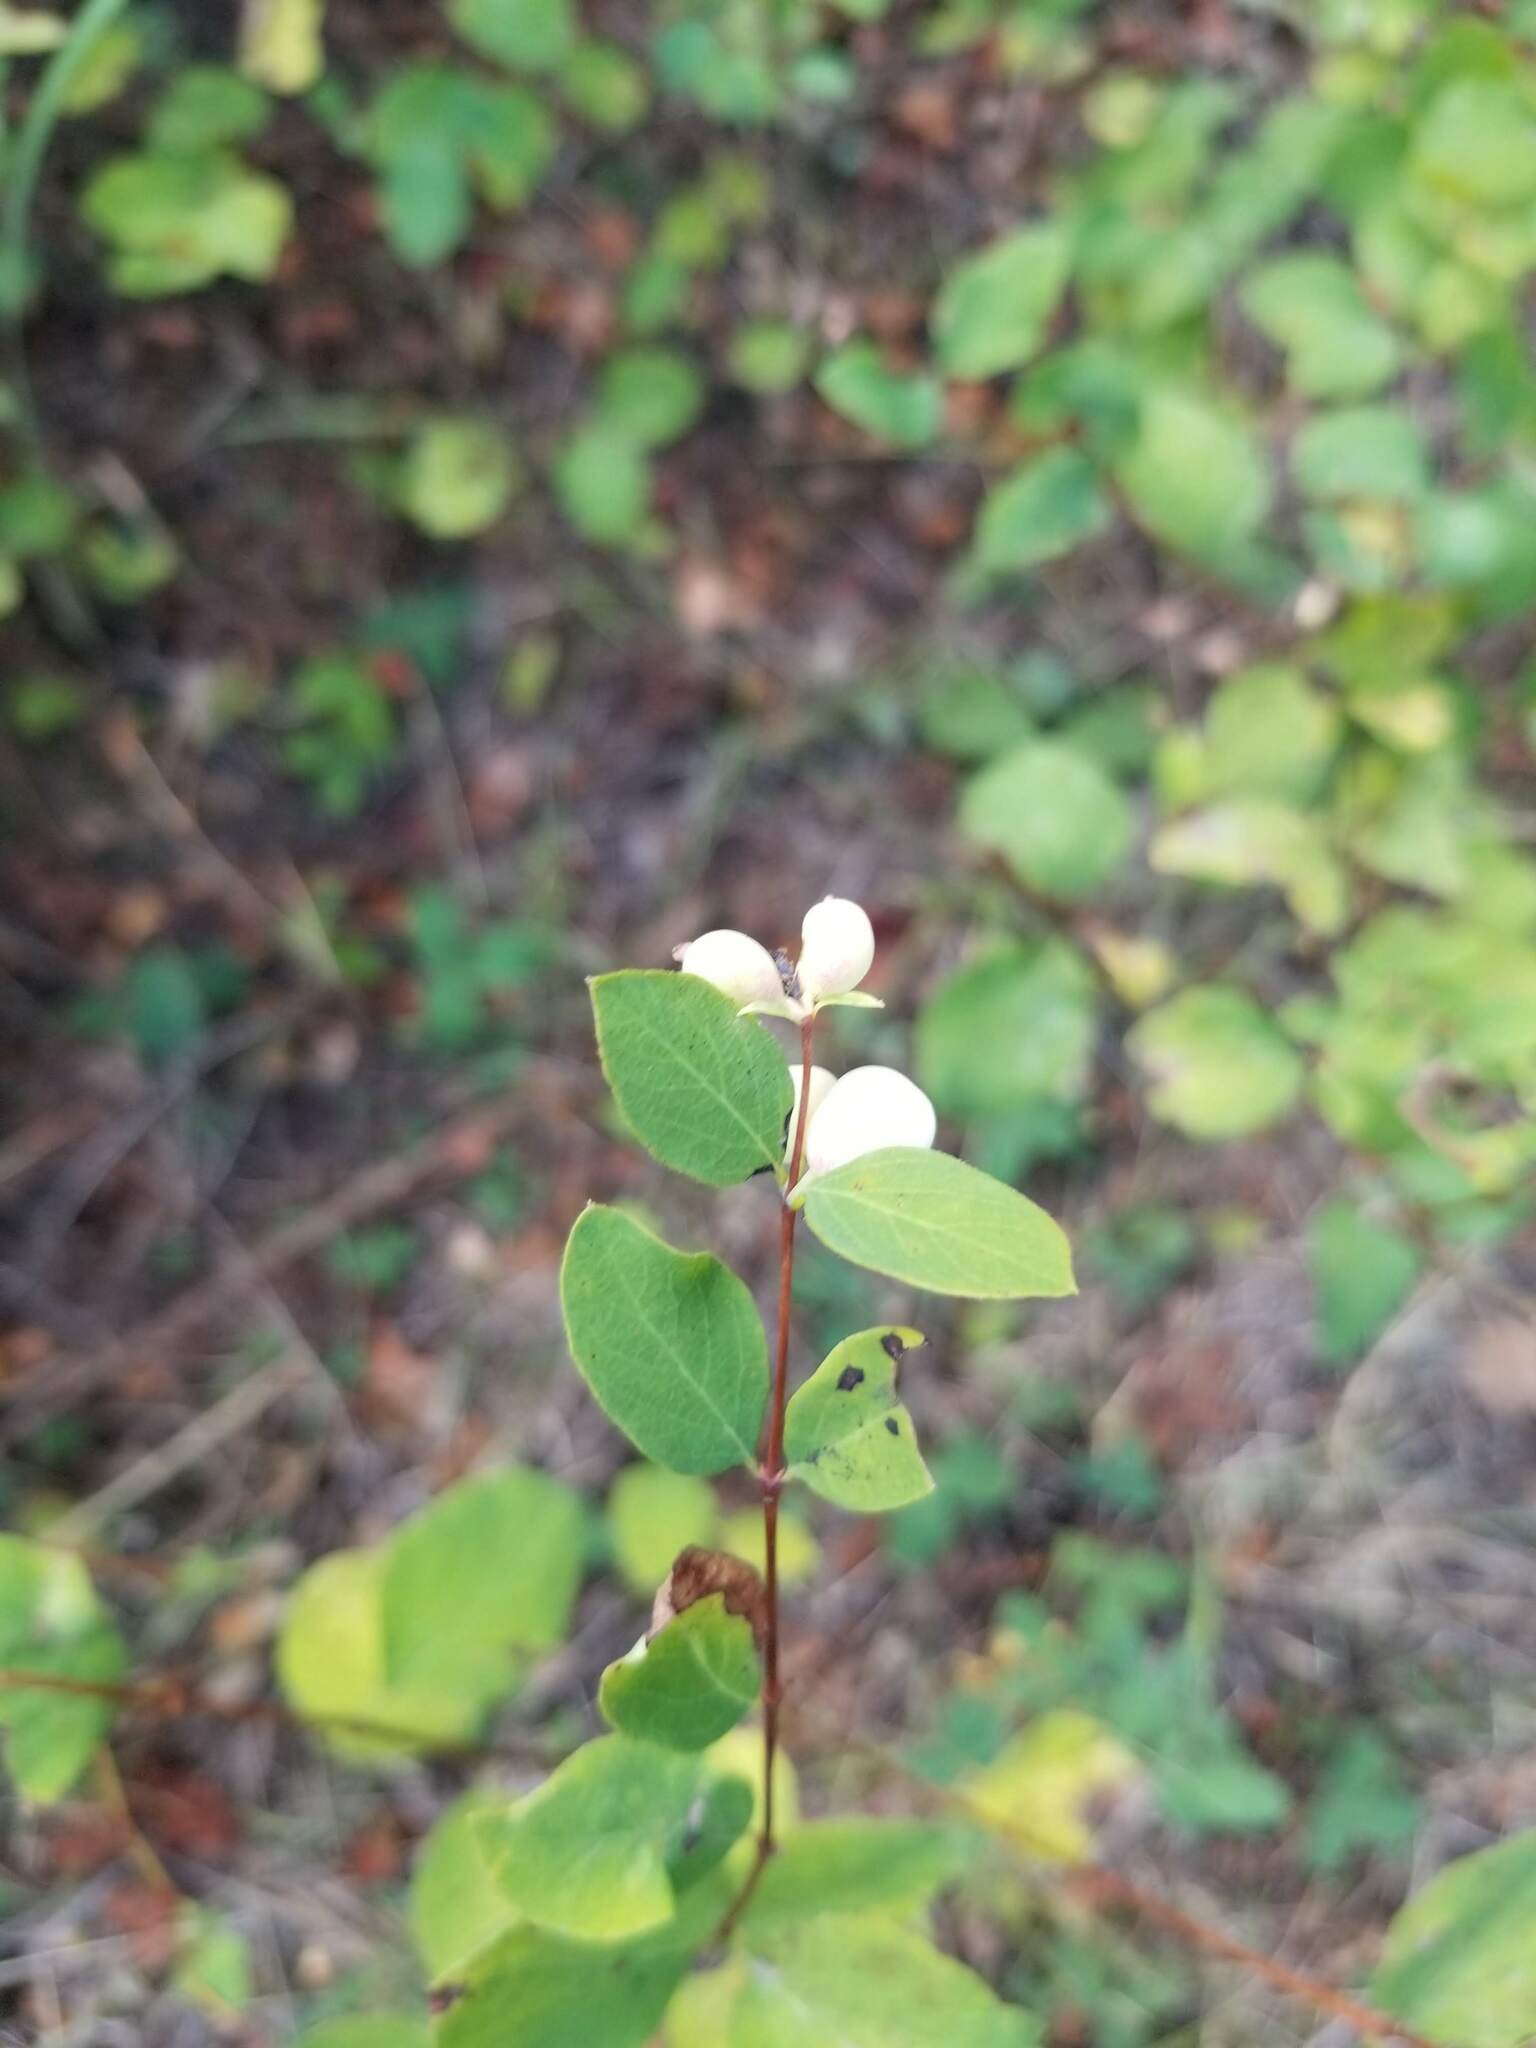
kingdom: Plantae
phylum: Tracheophyta
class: Magnoliopsida
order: Dipsacales
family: Caprifoliaceae
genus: Symphoricarpos
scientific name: Symphoricarpos albus
